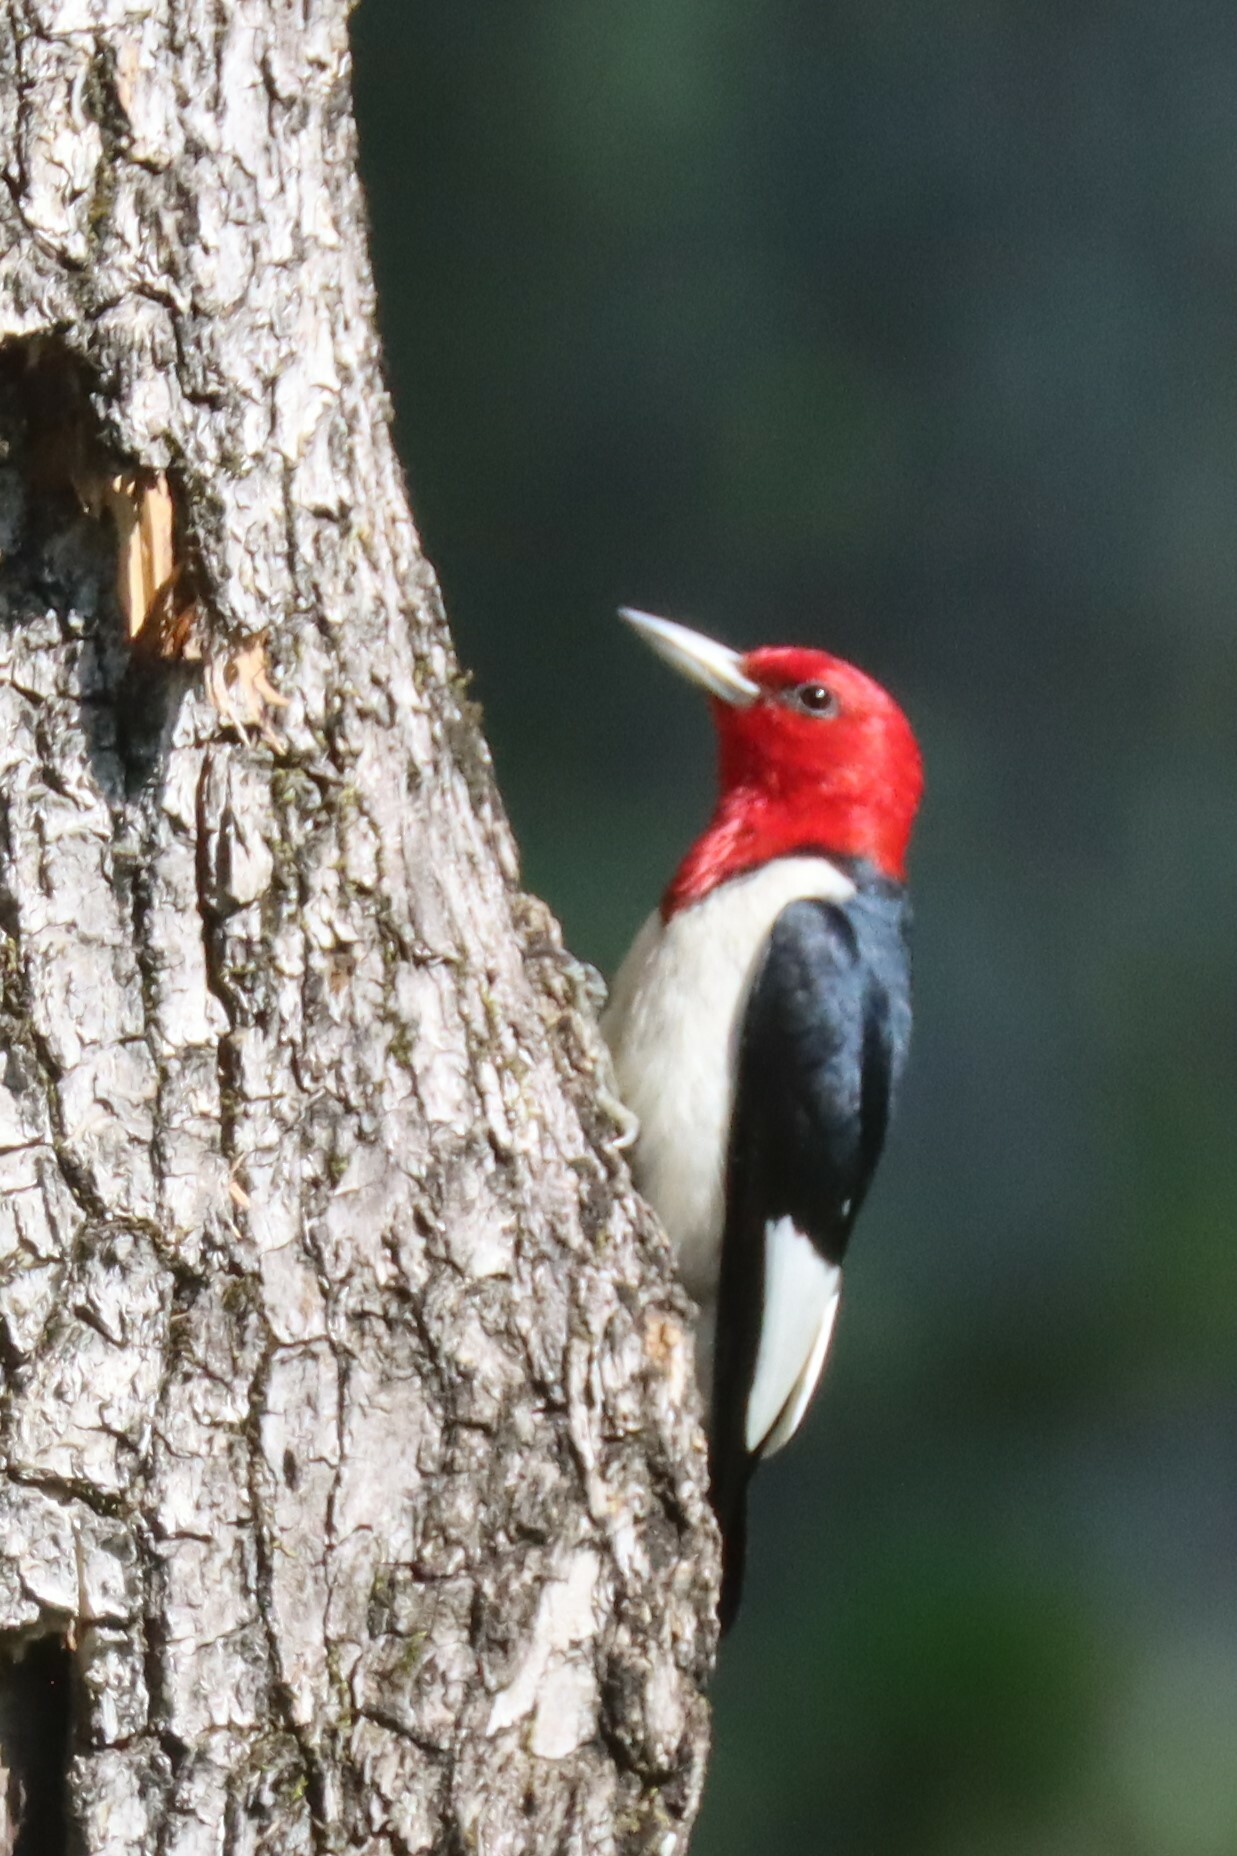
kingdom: Animalia
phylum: Chordata
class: Aves
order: Piciformes
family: Picidae
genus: Melanerpes
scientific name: Melanerpes erythrocephalus
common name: Red-headed woodpecker
